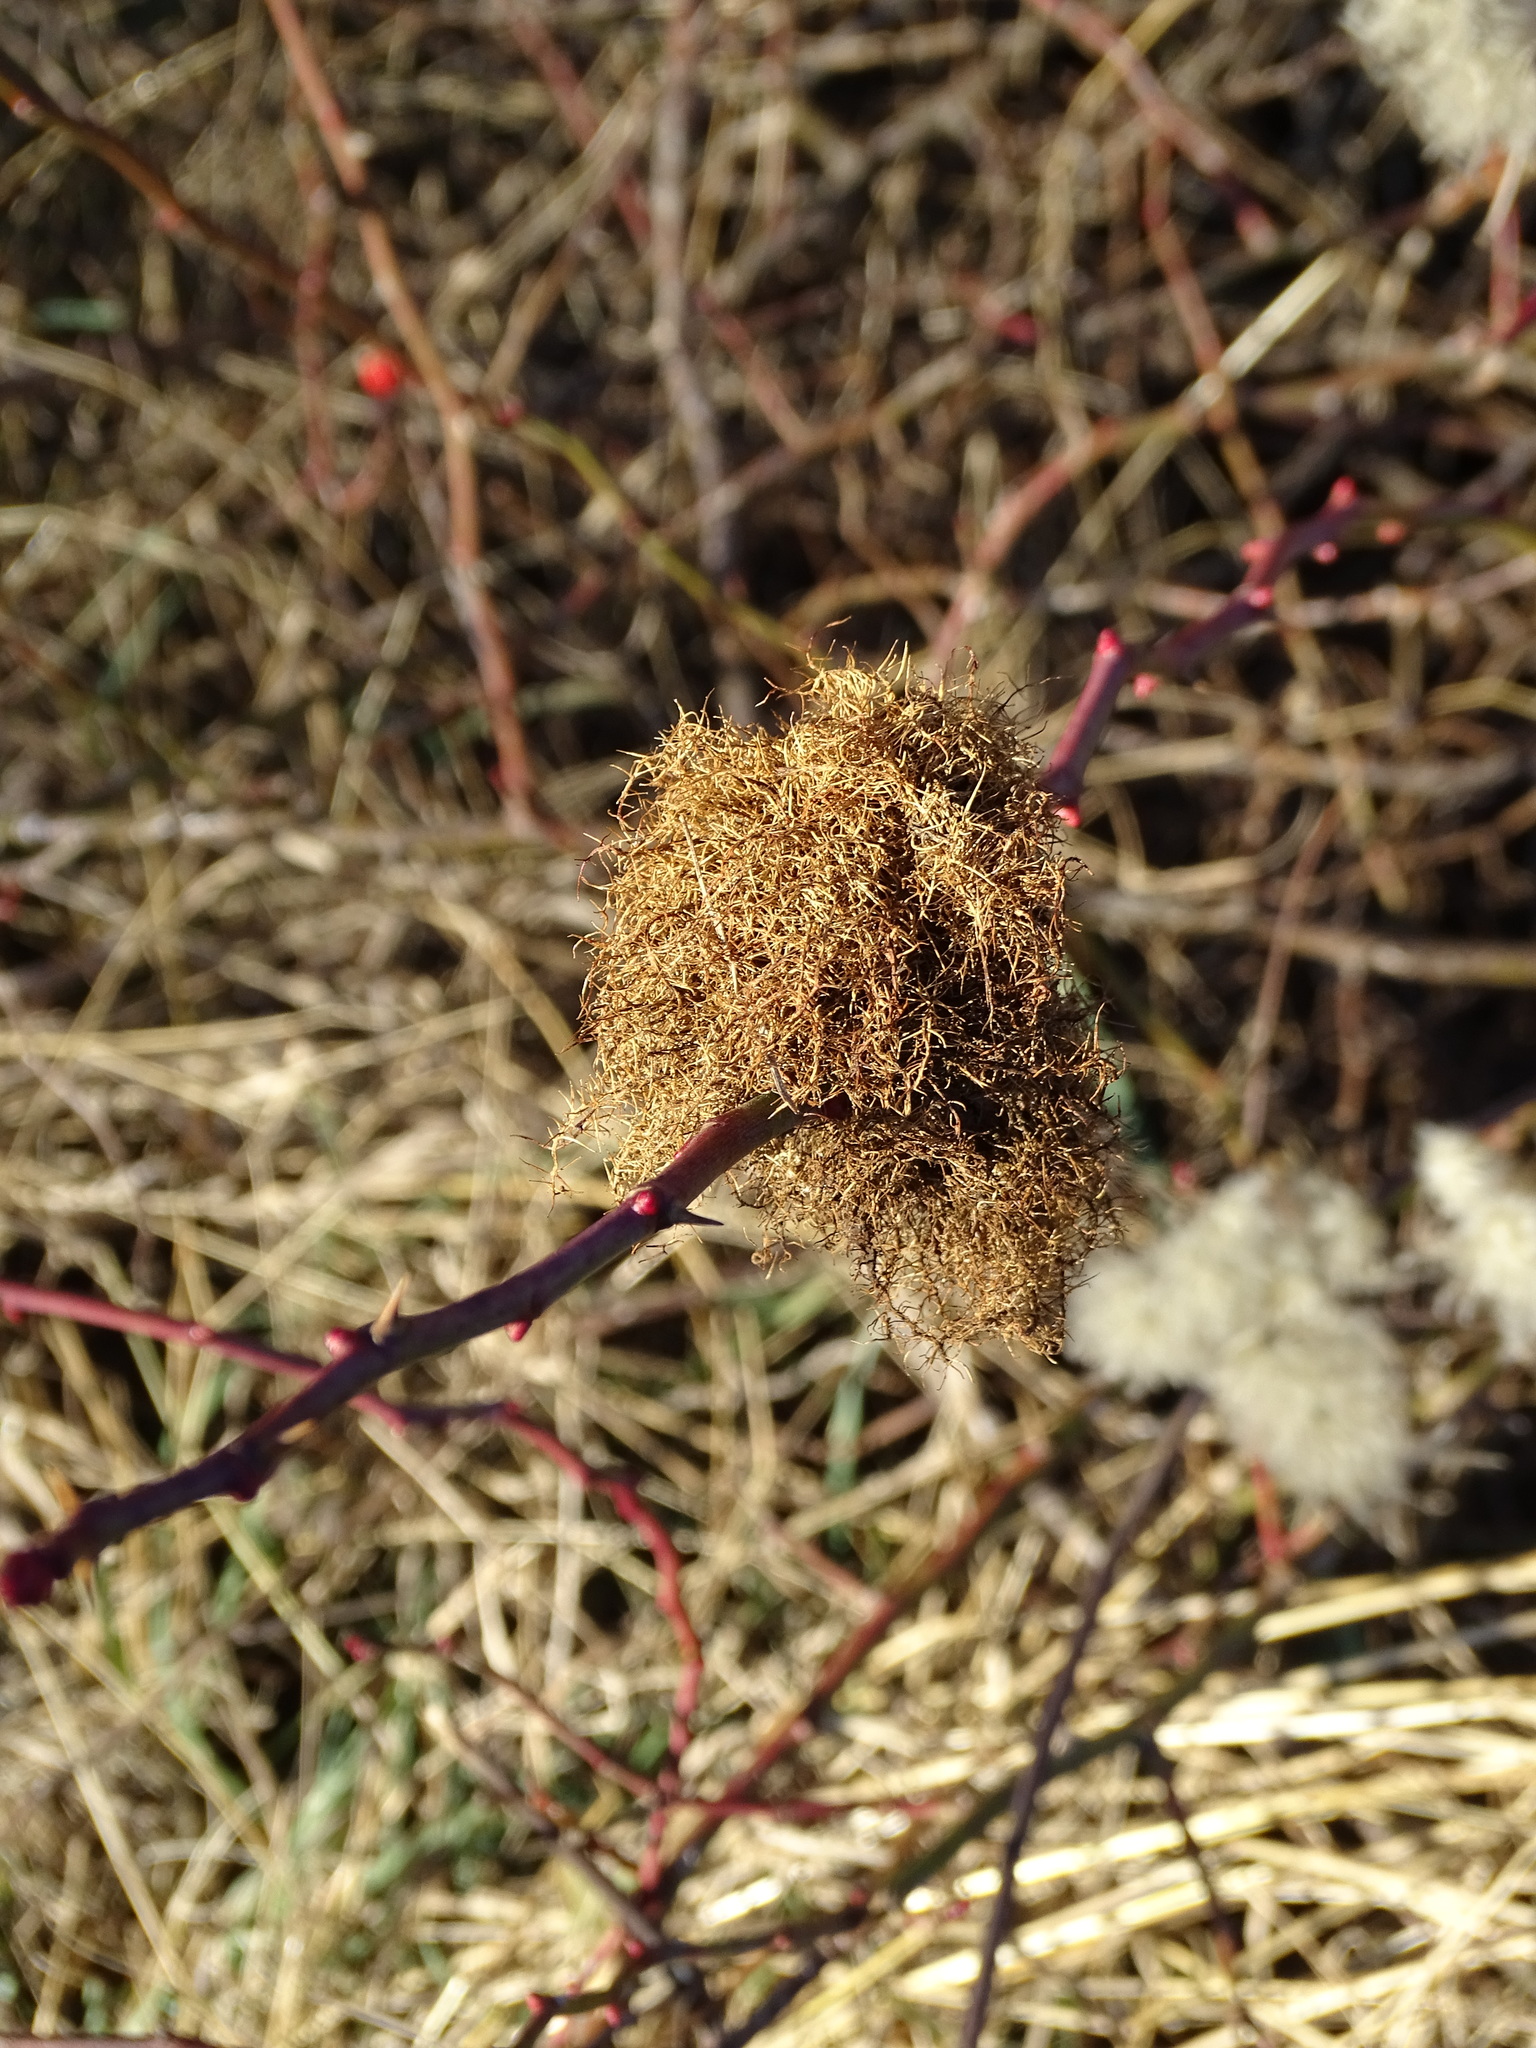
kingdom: Animalia
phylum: Arthropoda
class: Insecta
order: Hymenoptera
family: Cynipidae
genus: Diplolepis
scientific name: Diplolepis rosae
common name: Bedeguar gall
